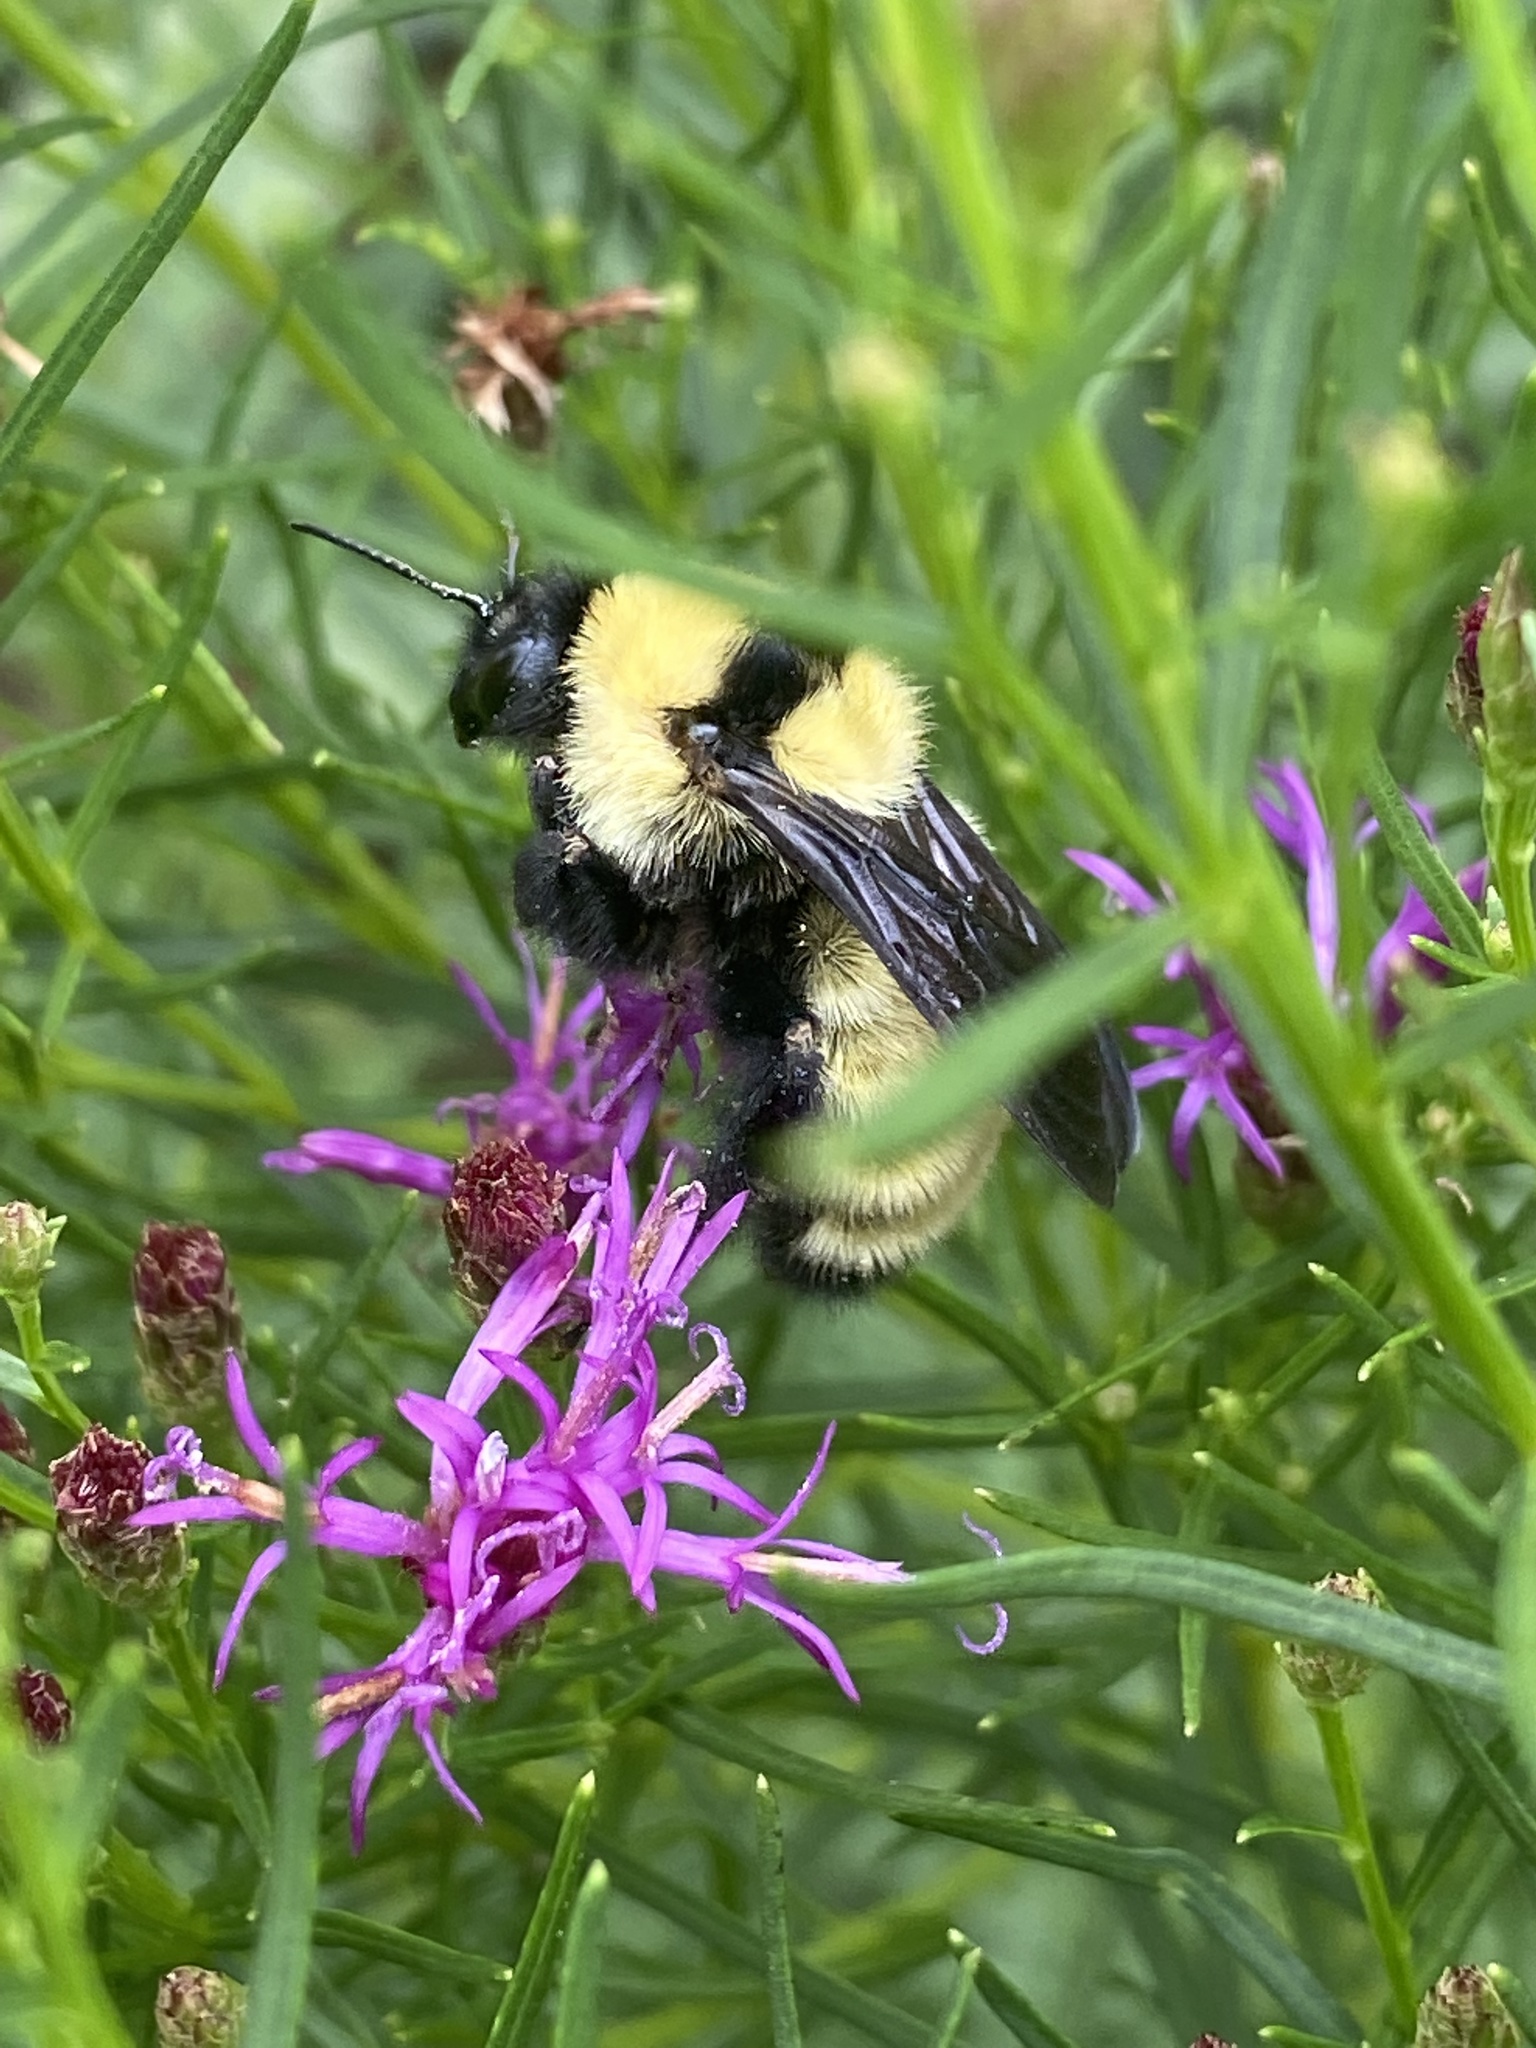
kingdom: Animalia
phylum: Arthropoda
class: Insecta
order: Hymenoptera
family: Apidae
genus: Bombus
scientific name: Bombus fervidus
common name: Yellow bumble bee
